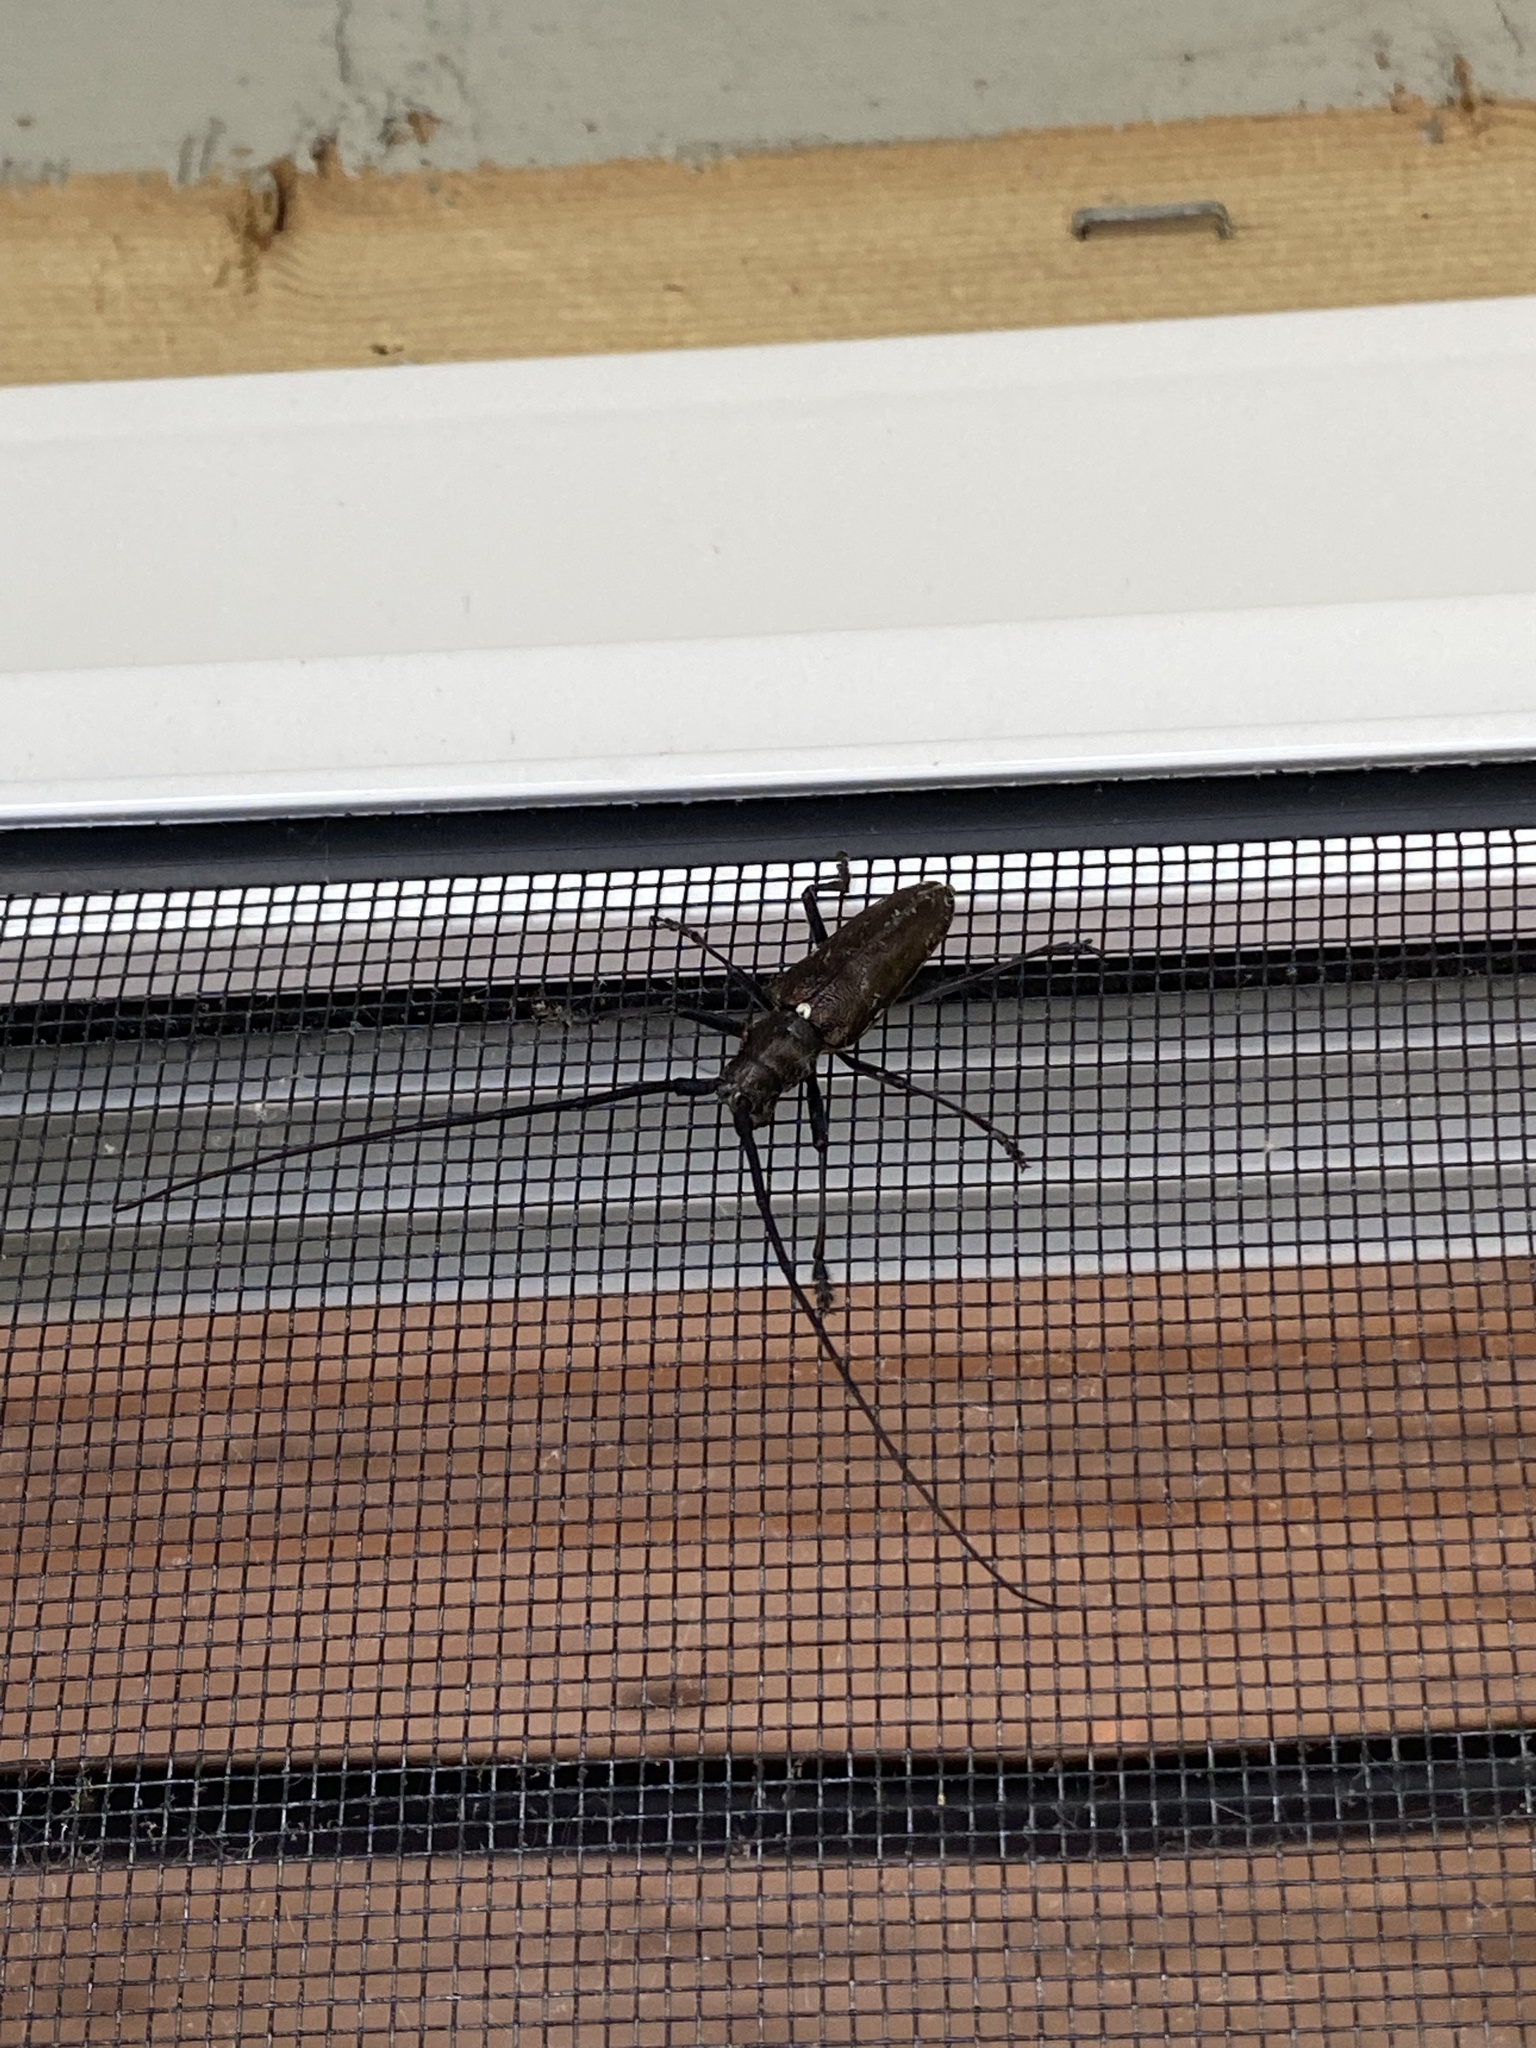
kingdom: Animalia
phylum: Arthropoda
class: Insecta
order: Coleoptera
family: Cerambycidae
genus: Monochamus
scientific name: Monochamus scutellatus
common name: White-spotted sawyer beetle
